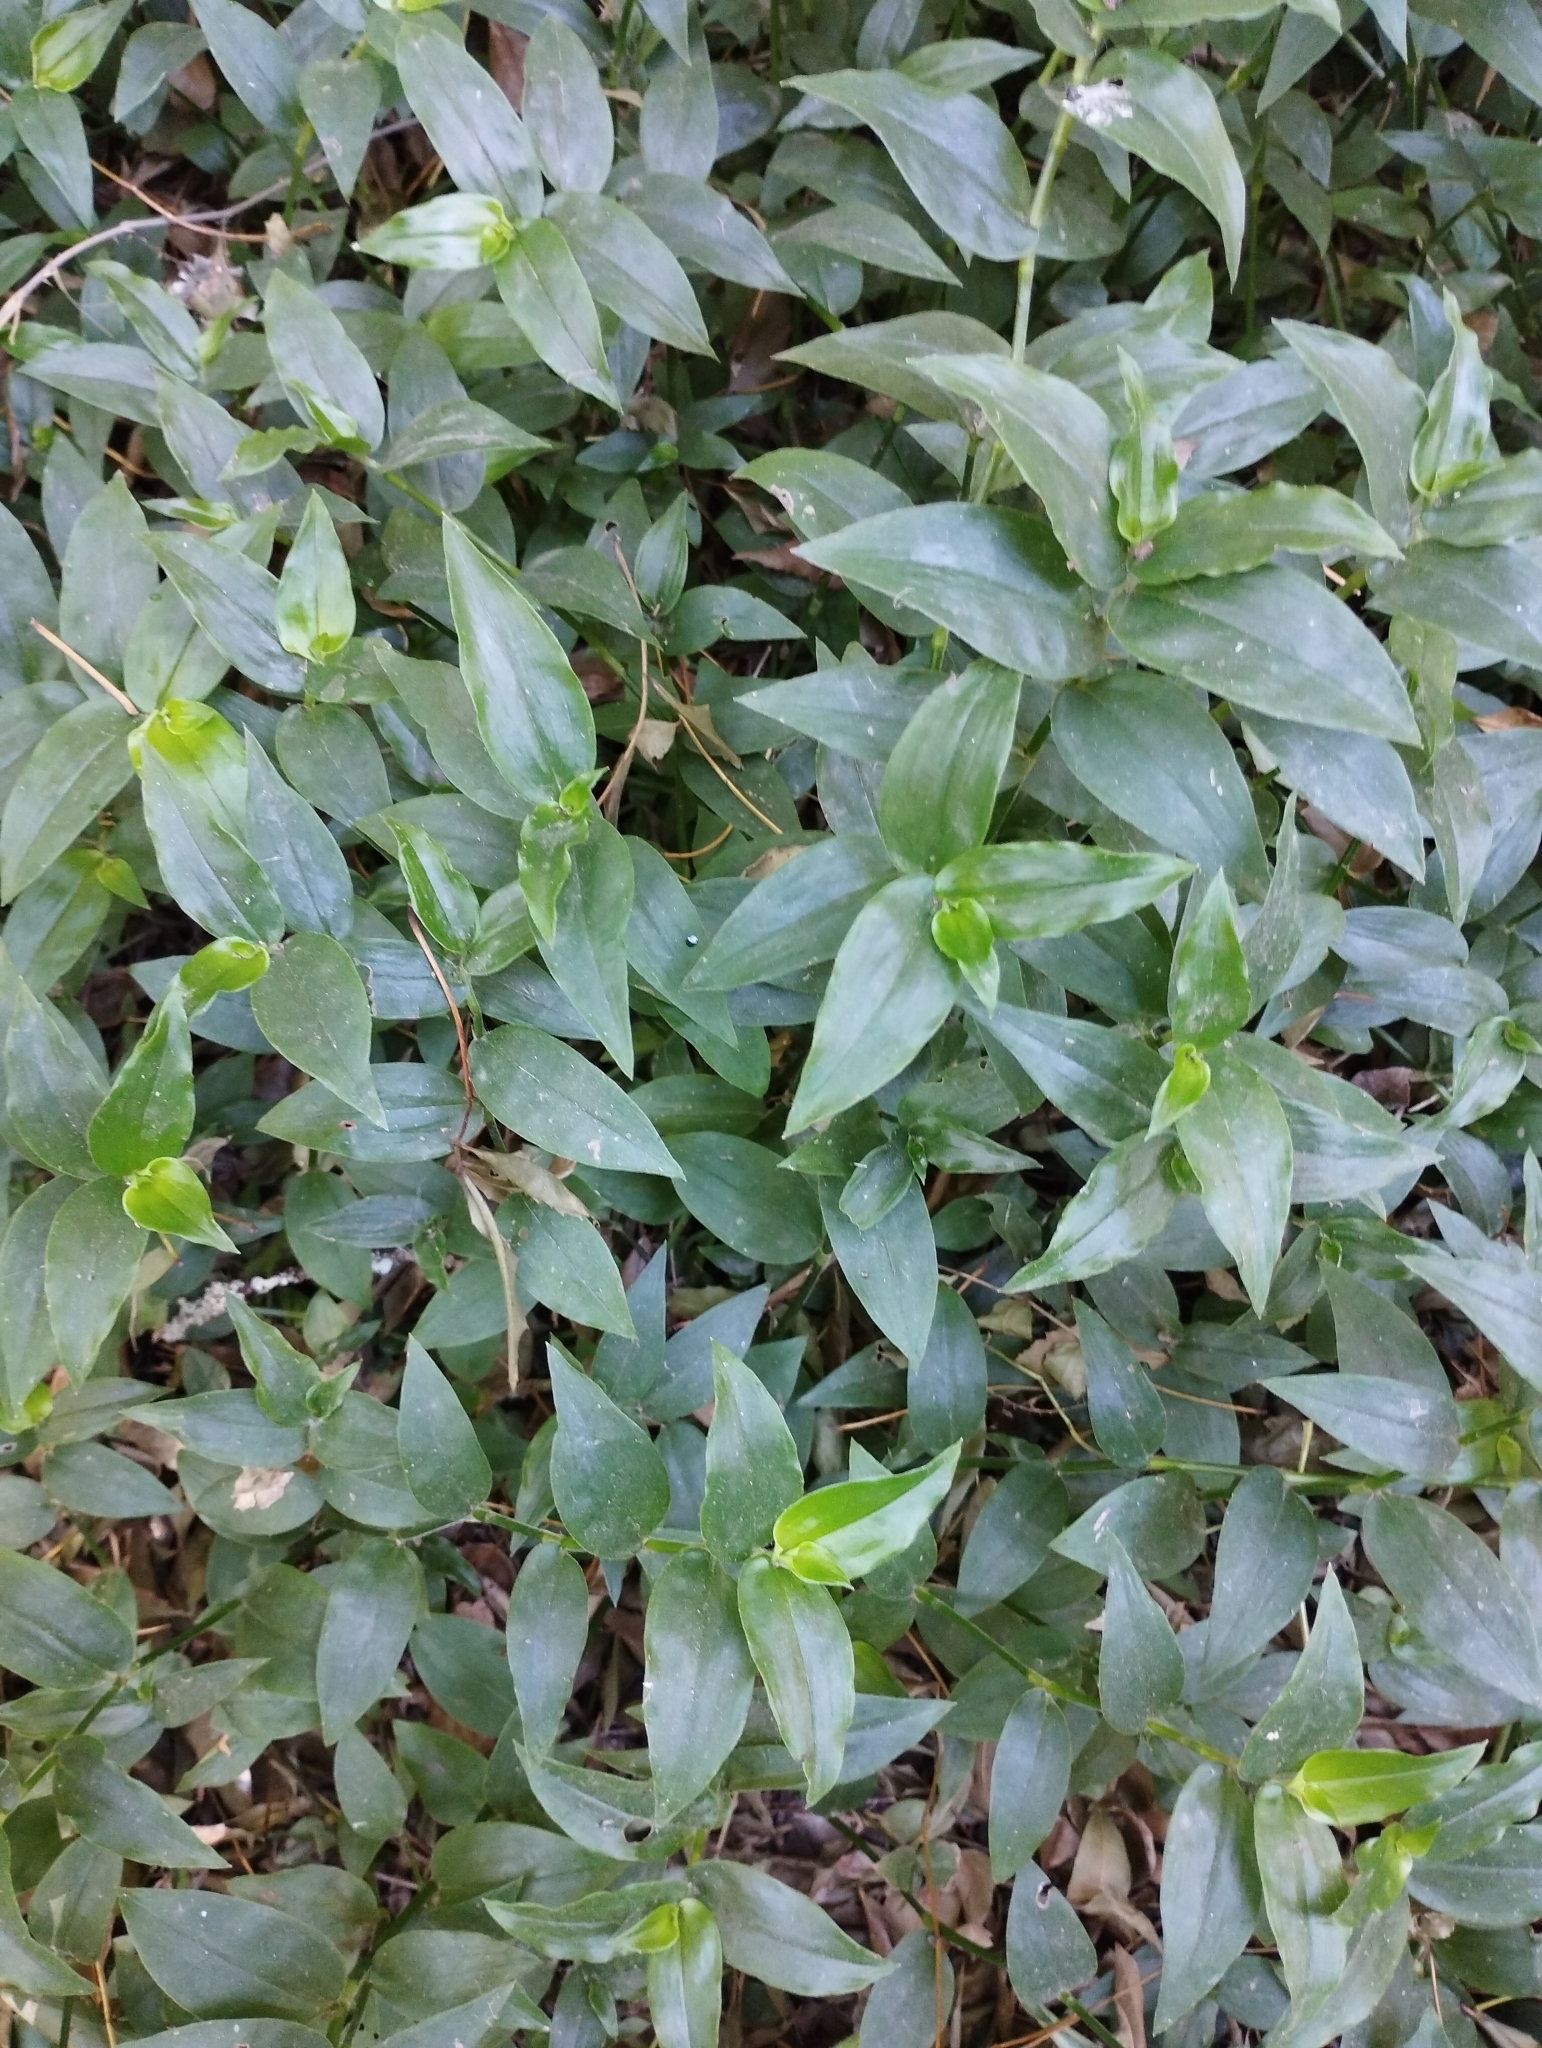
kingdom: Plantae
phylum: Tracheophyta
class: Liliopsida
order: Commelinales
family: Commelinaceae
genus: Tradescantia
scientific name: Tradescantia fluminensis
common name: Wandering-jew
